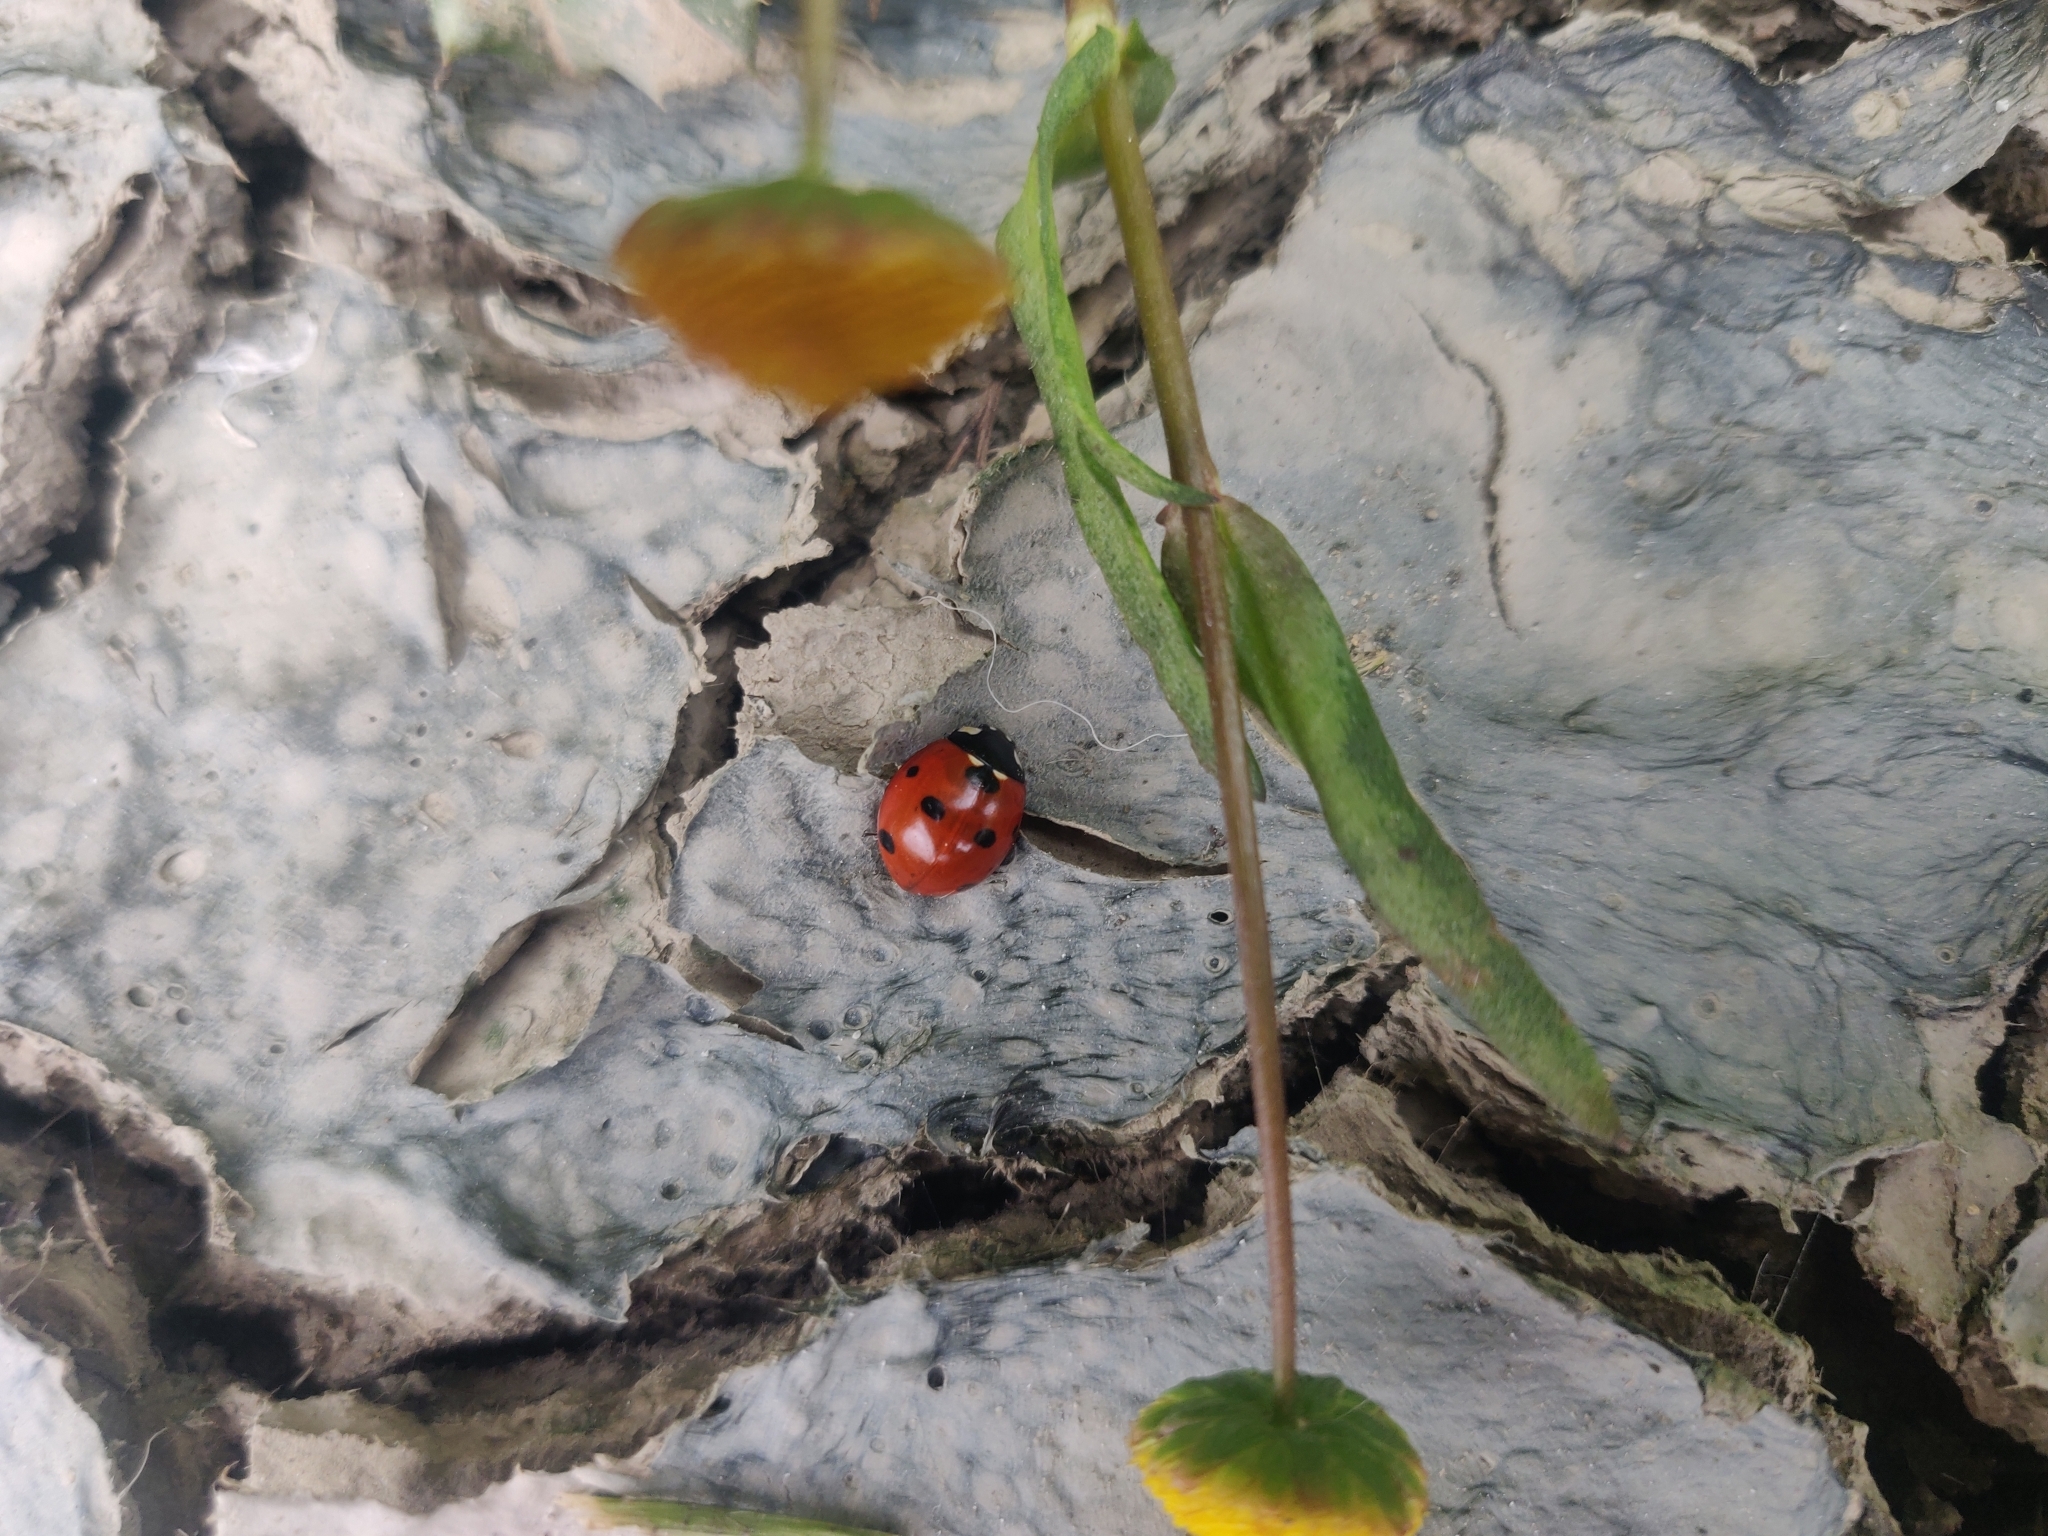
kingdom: Animalia
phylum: Arthropoda
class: Insecta
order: Coleoptera
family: Coccinellidae
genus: Coccinella
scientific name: Coccinella septempunctata
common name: Sevenspotted lady beetle
